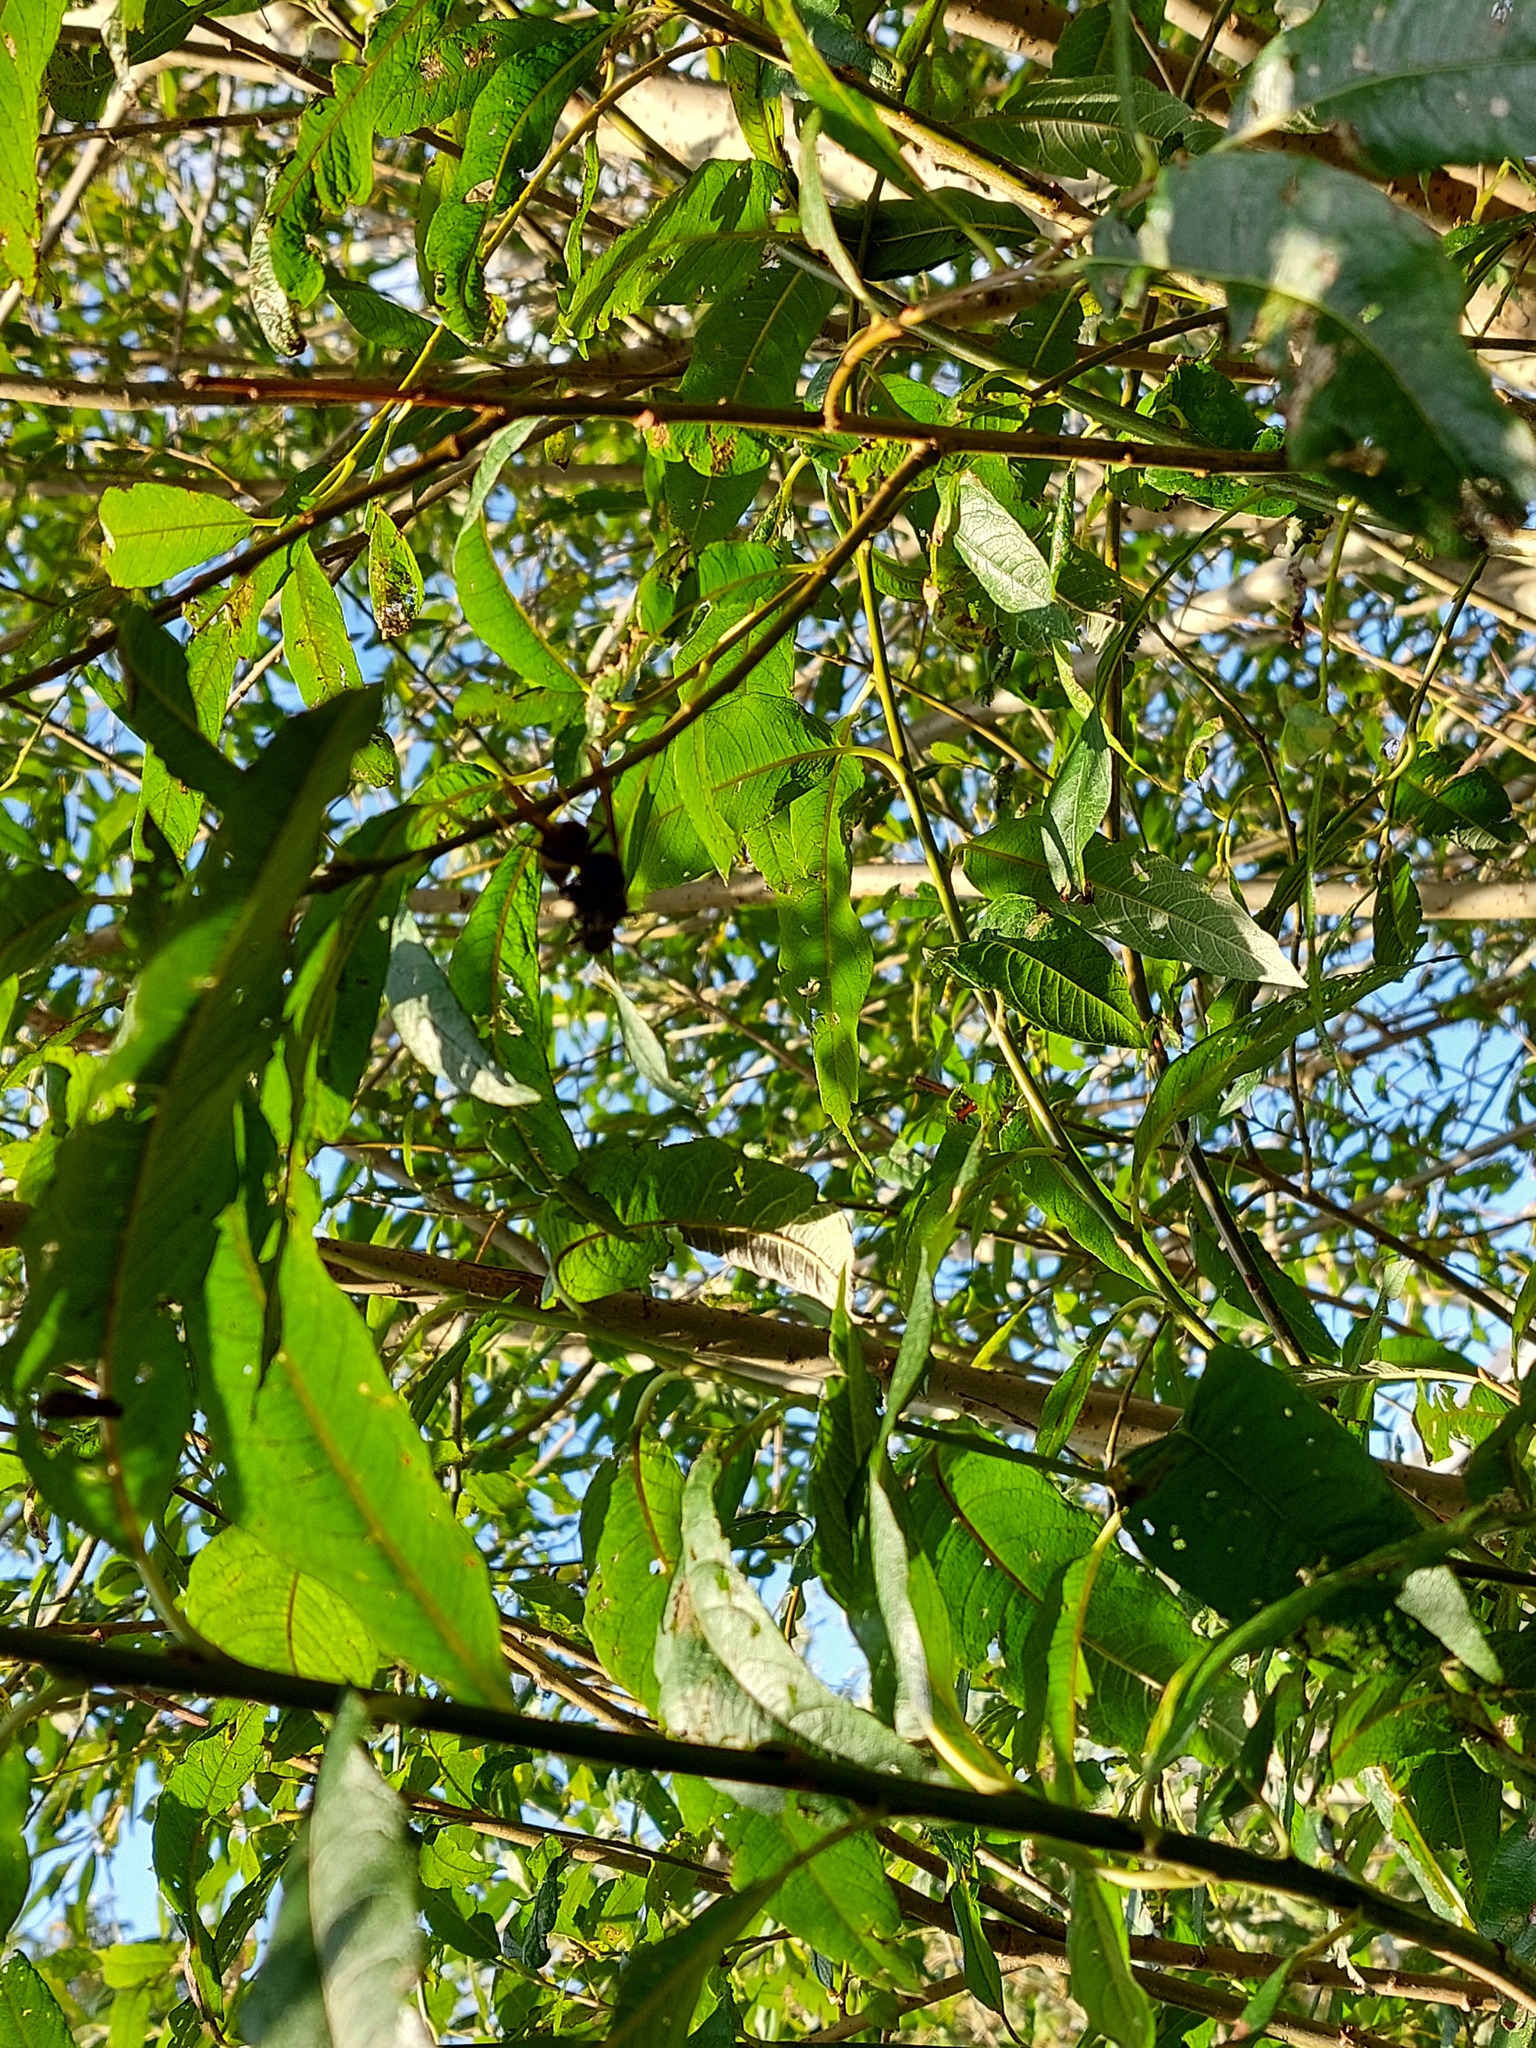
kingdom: Animalia
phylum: Arthropoda
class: Insecta
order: Hymenoptera
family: Vespidae
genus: Vespa
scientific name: Vespa velutina
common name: Asian hornet
